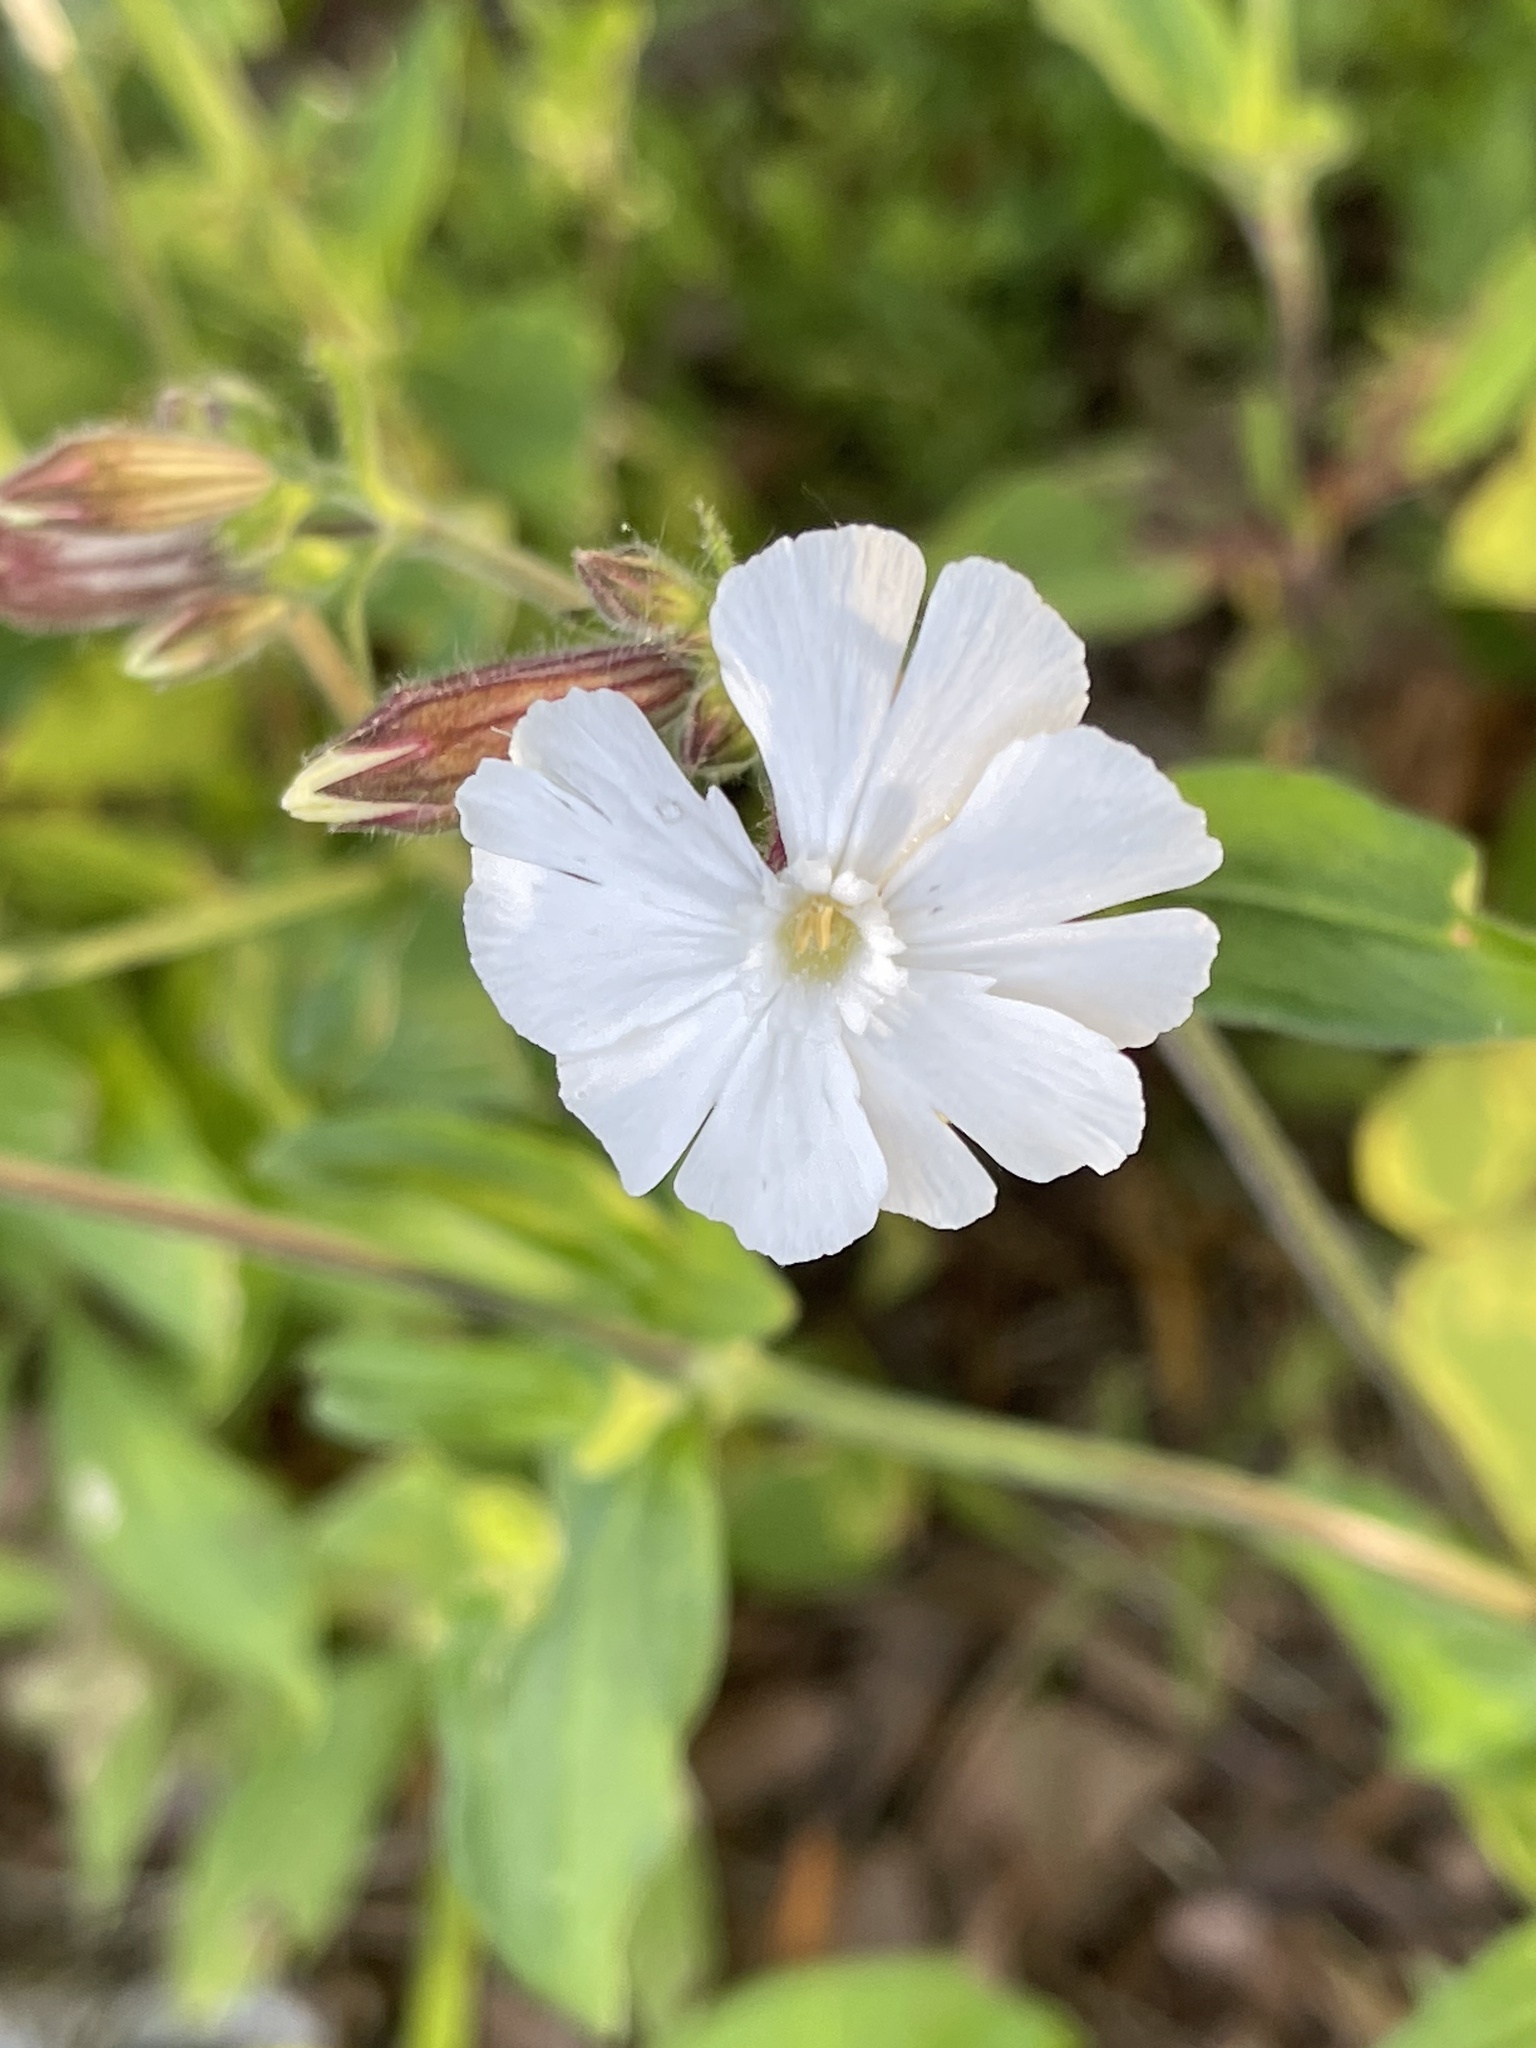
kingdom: Plantae
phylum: Tracheophyta
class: Magnoliopsida
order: Caryophyllales
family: Caryophyllaceae
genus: Silene
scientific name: Silene latifolia
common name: White campion
